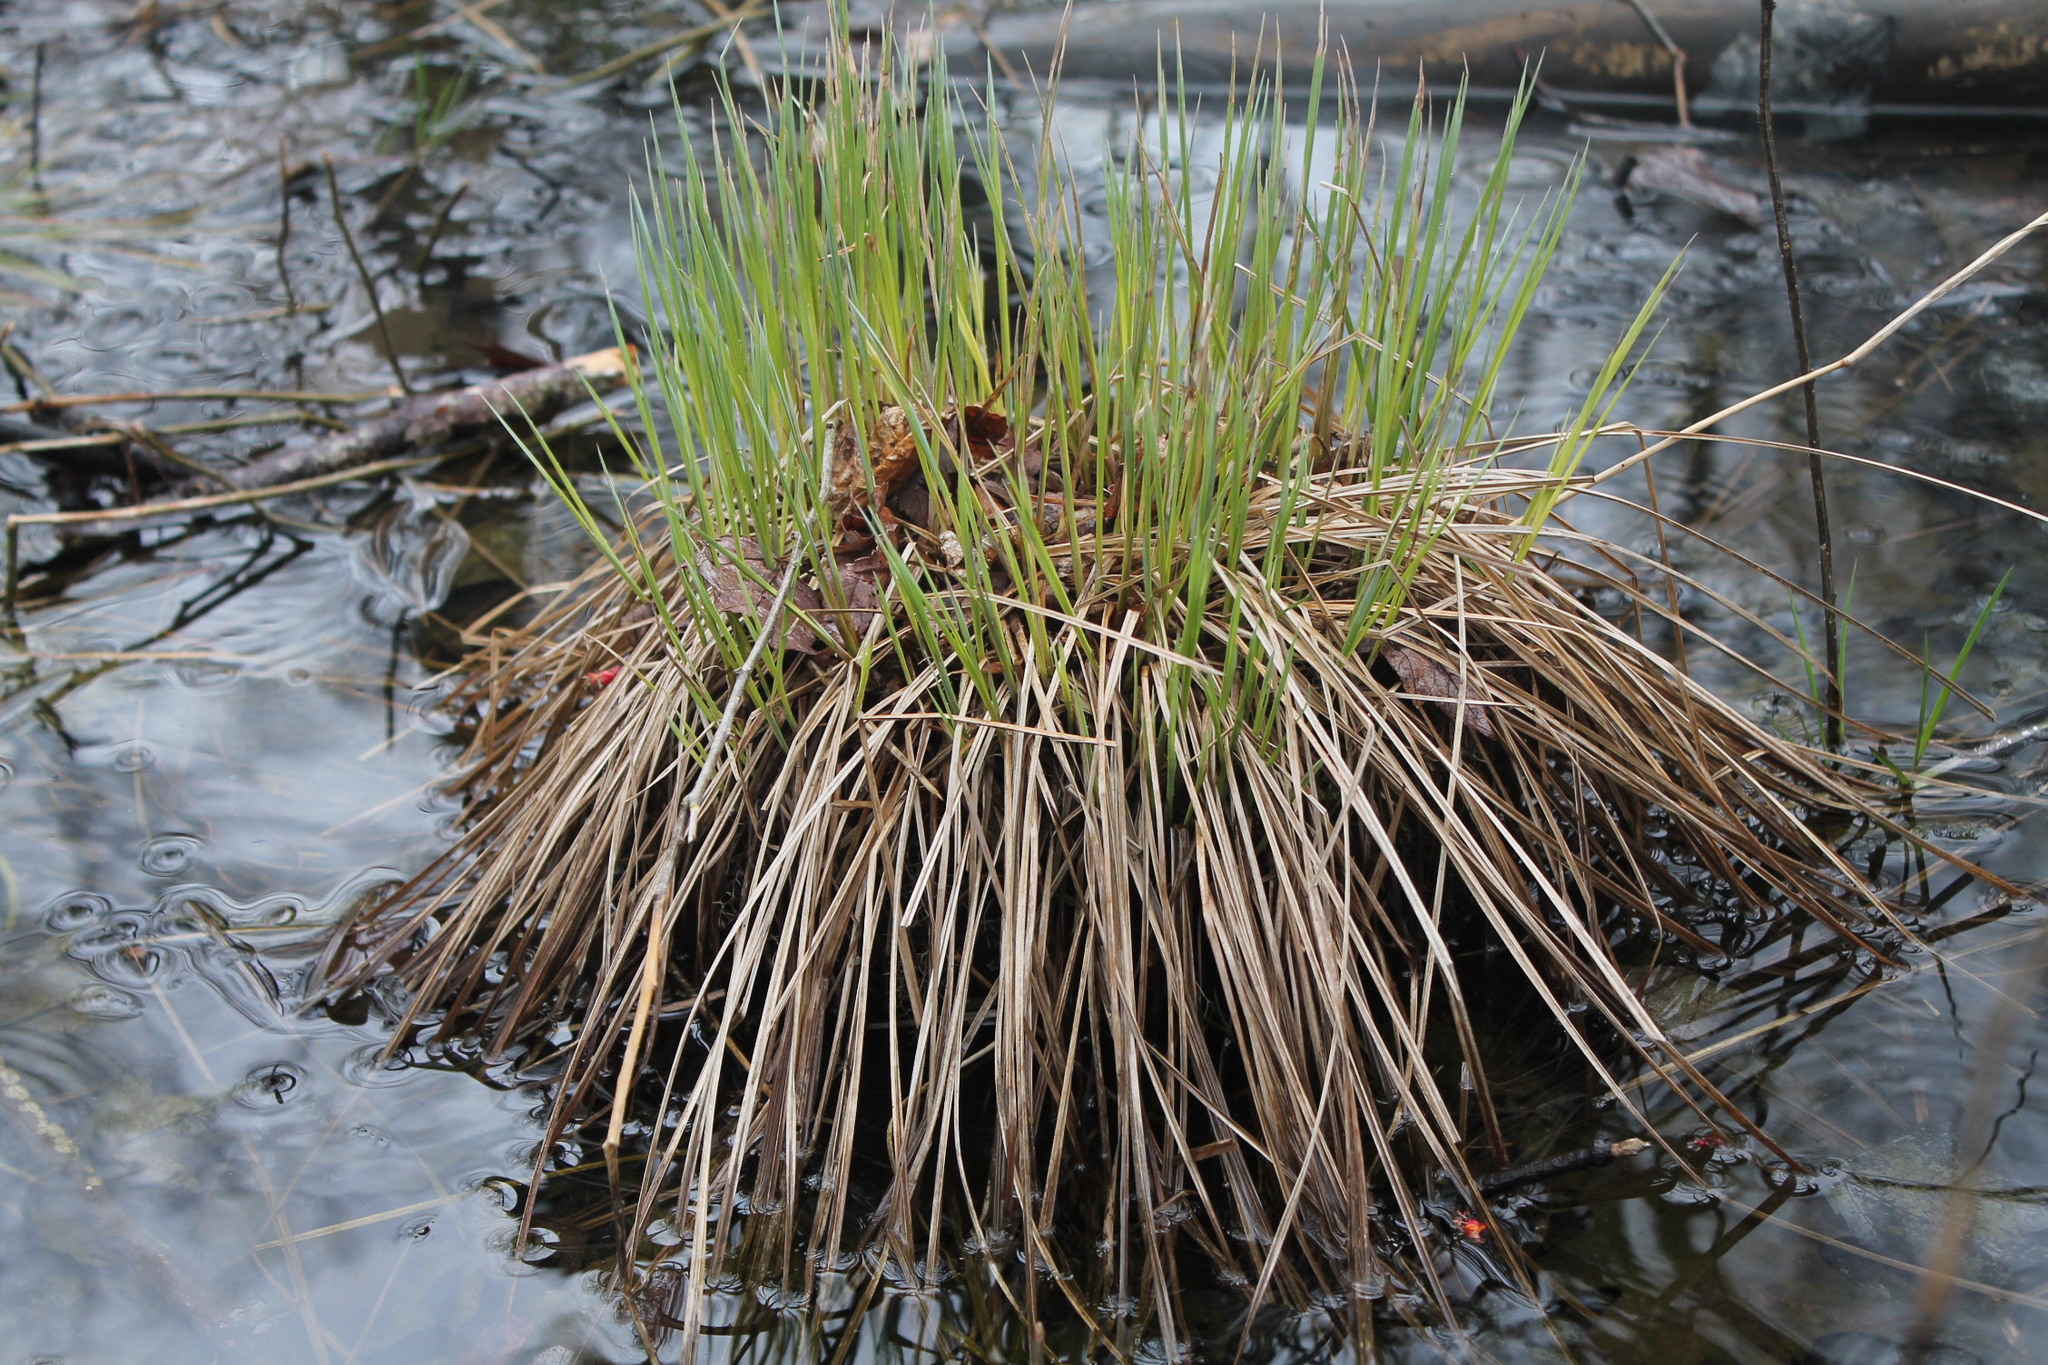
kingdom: Plantae
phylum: Tracheophyta
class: Liliopsida
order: Poales
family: Cyperaceae
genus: Carex
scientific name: Carex stricta
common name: Hummock sedge
